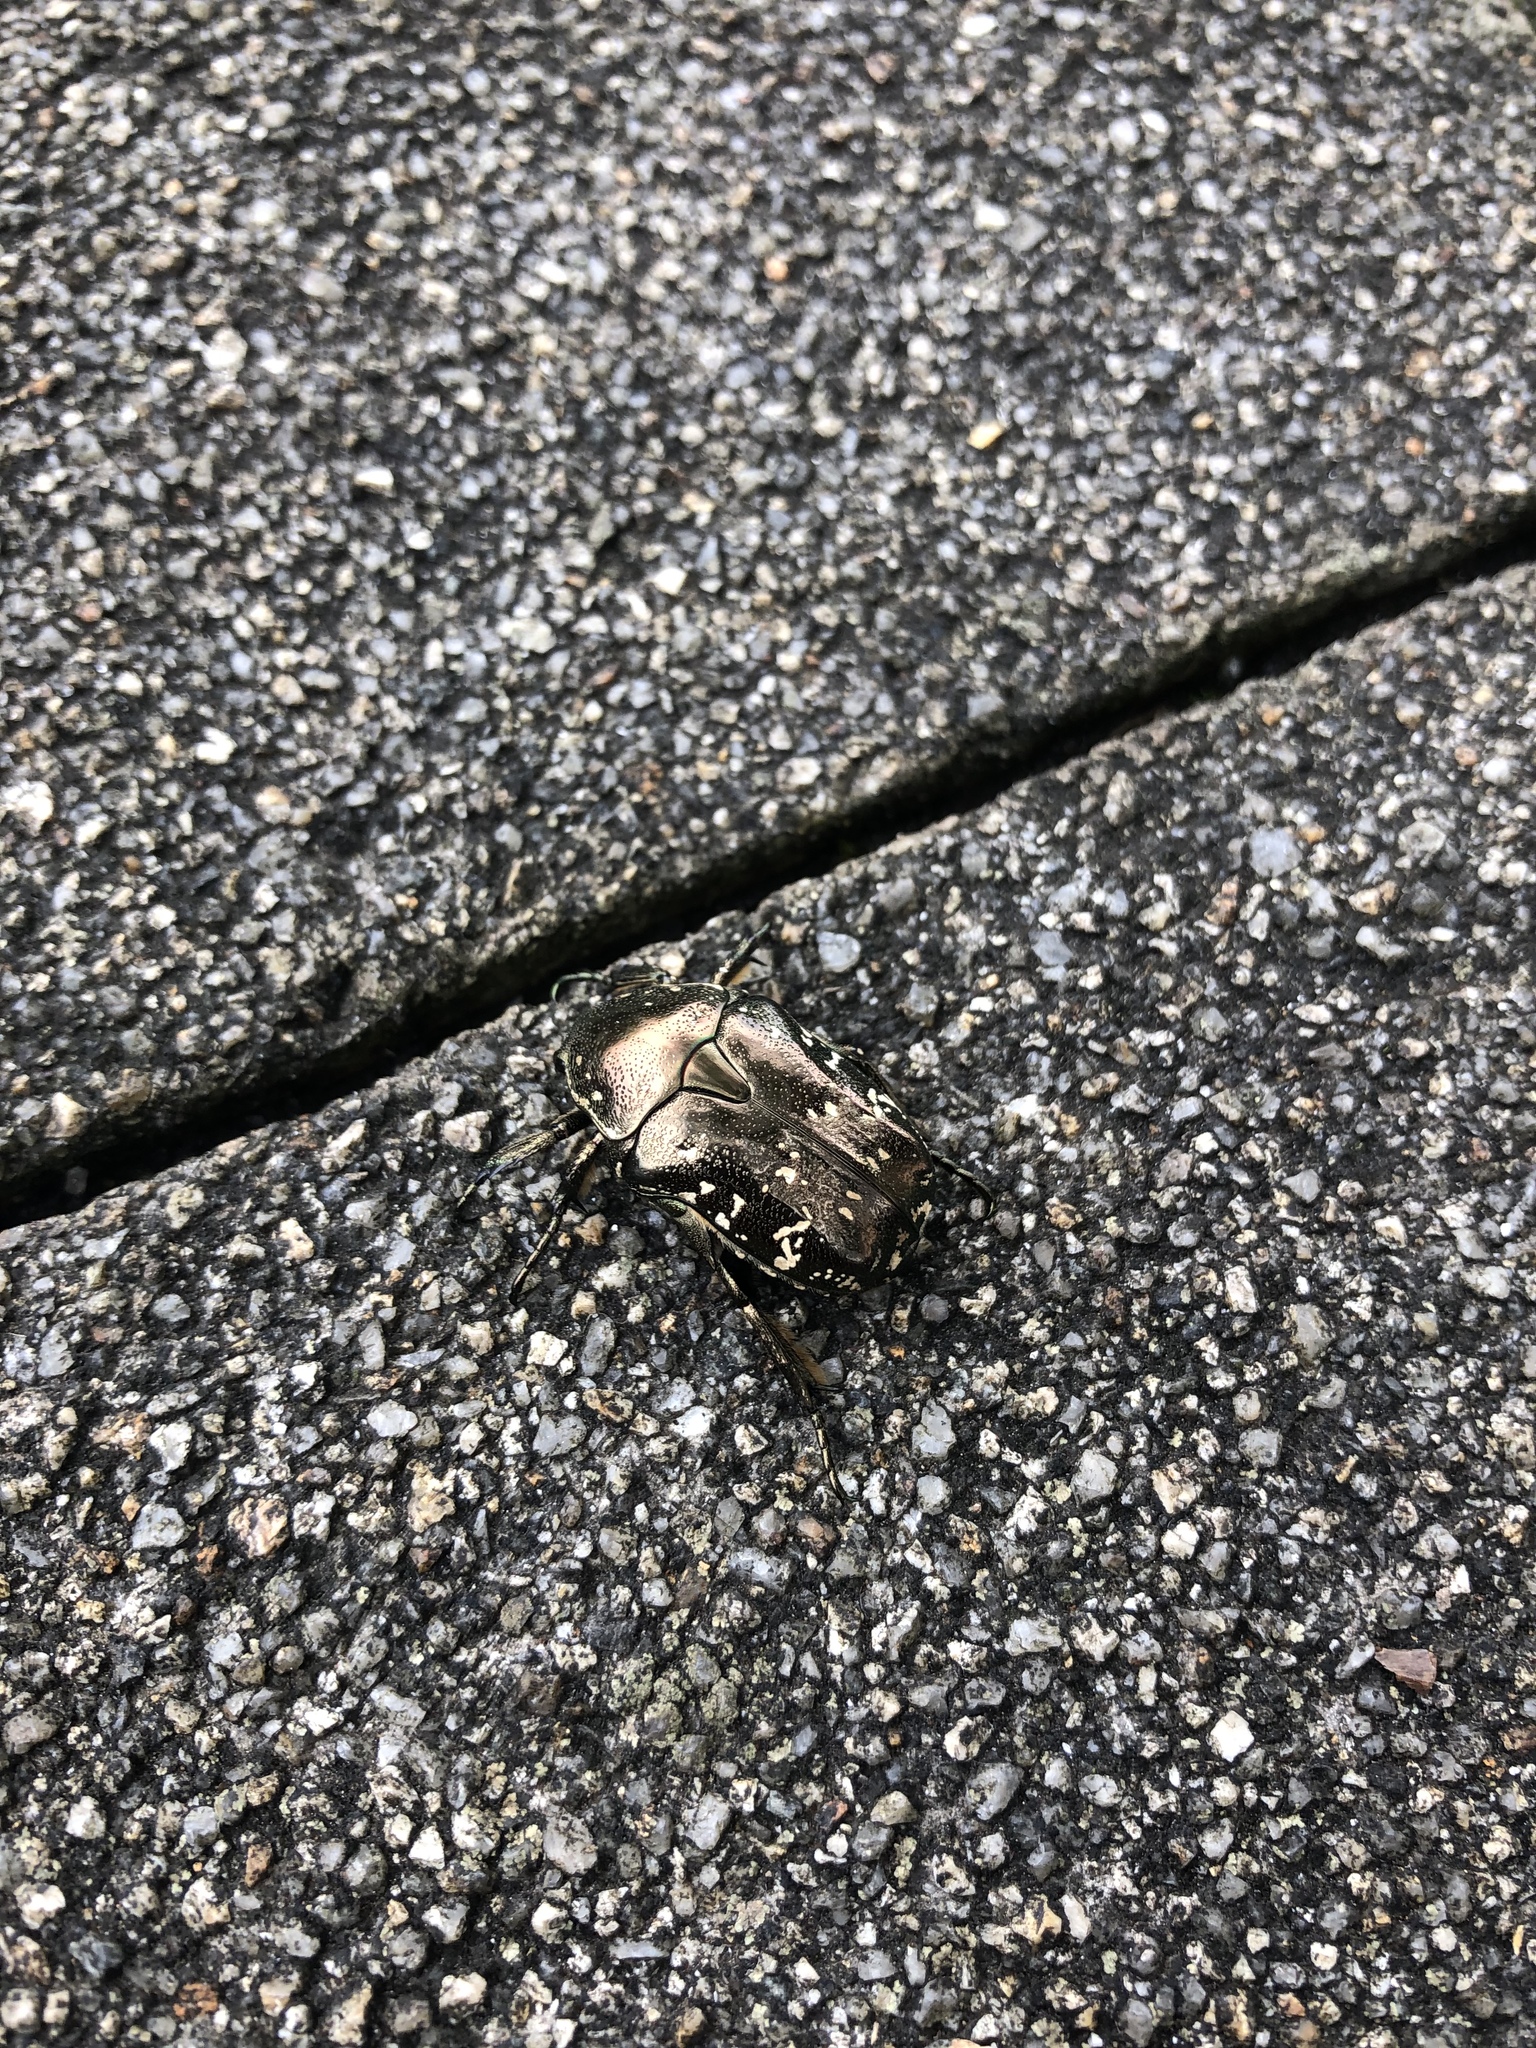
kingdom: Animalia
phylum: Arthropoda
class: Insecta
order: Coleoptera
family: Scarabaeidae
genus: Protaetia
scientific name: Protaetia orientalis
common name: Oriental flower beetle
